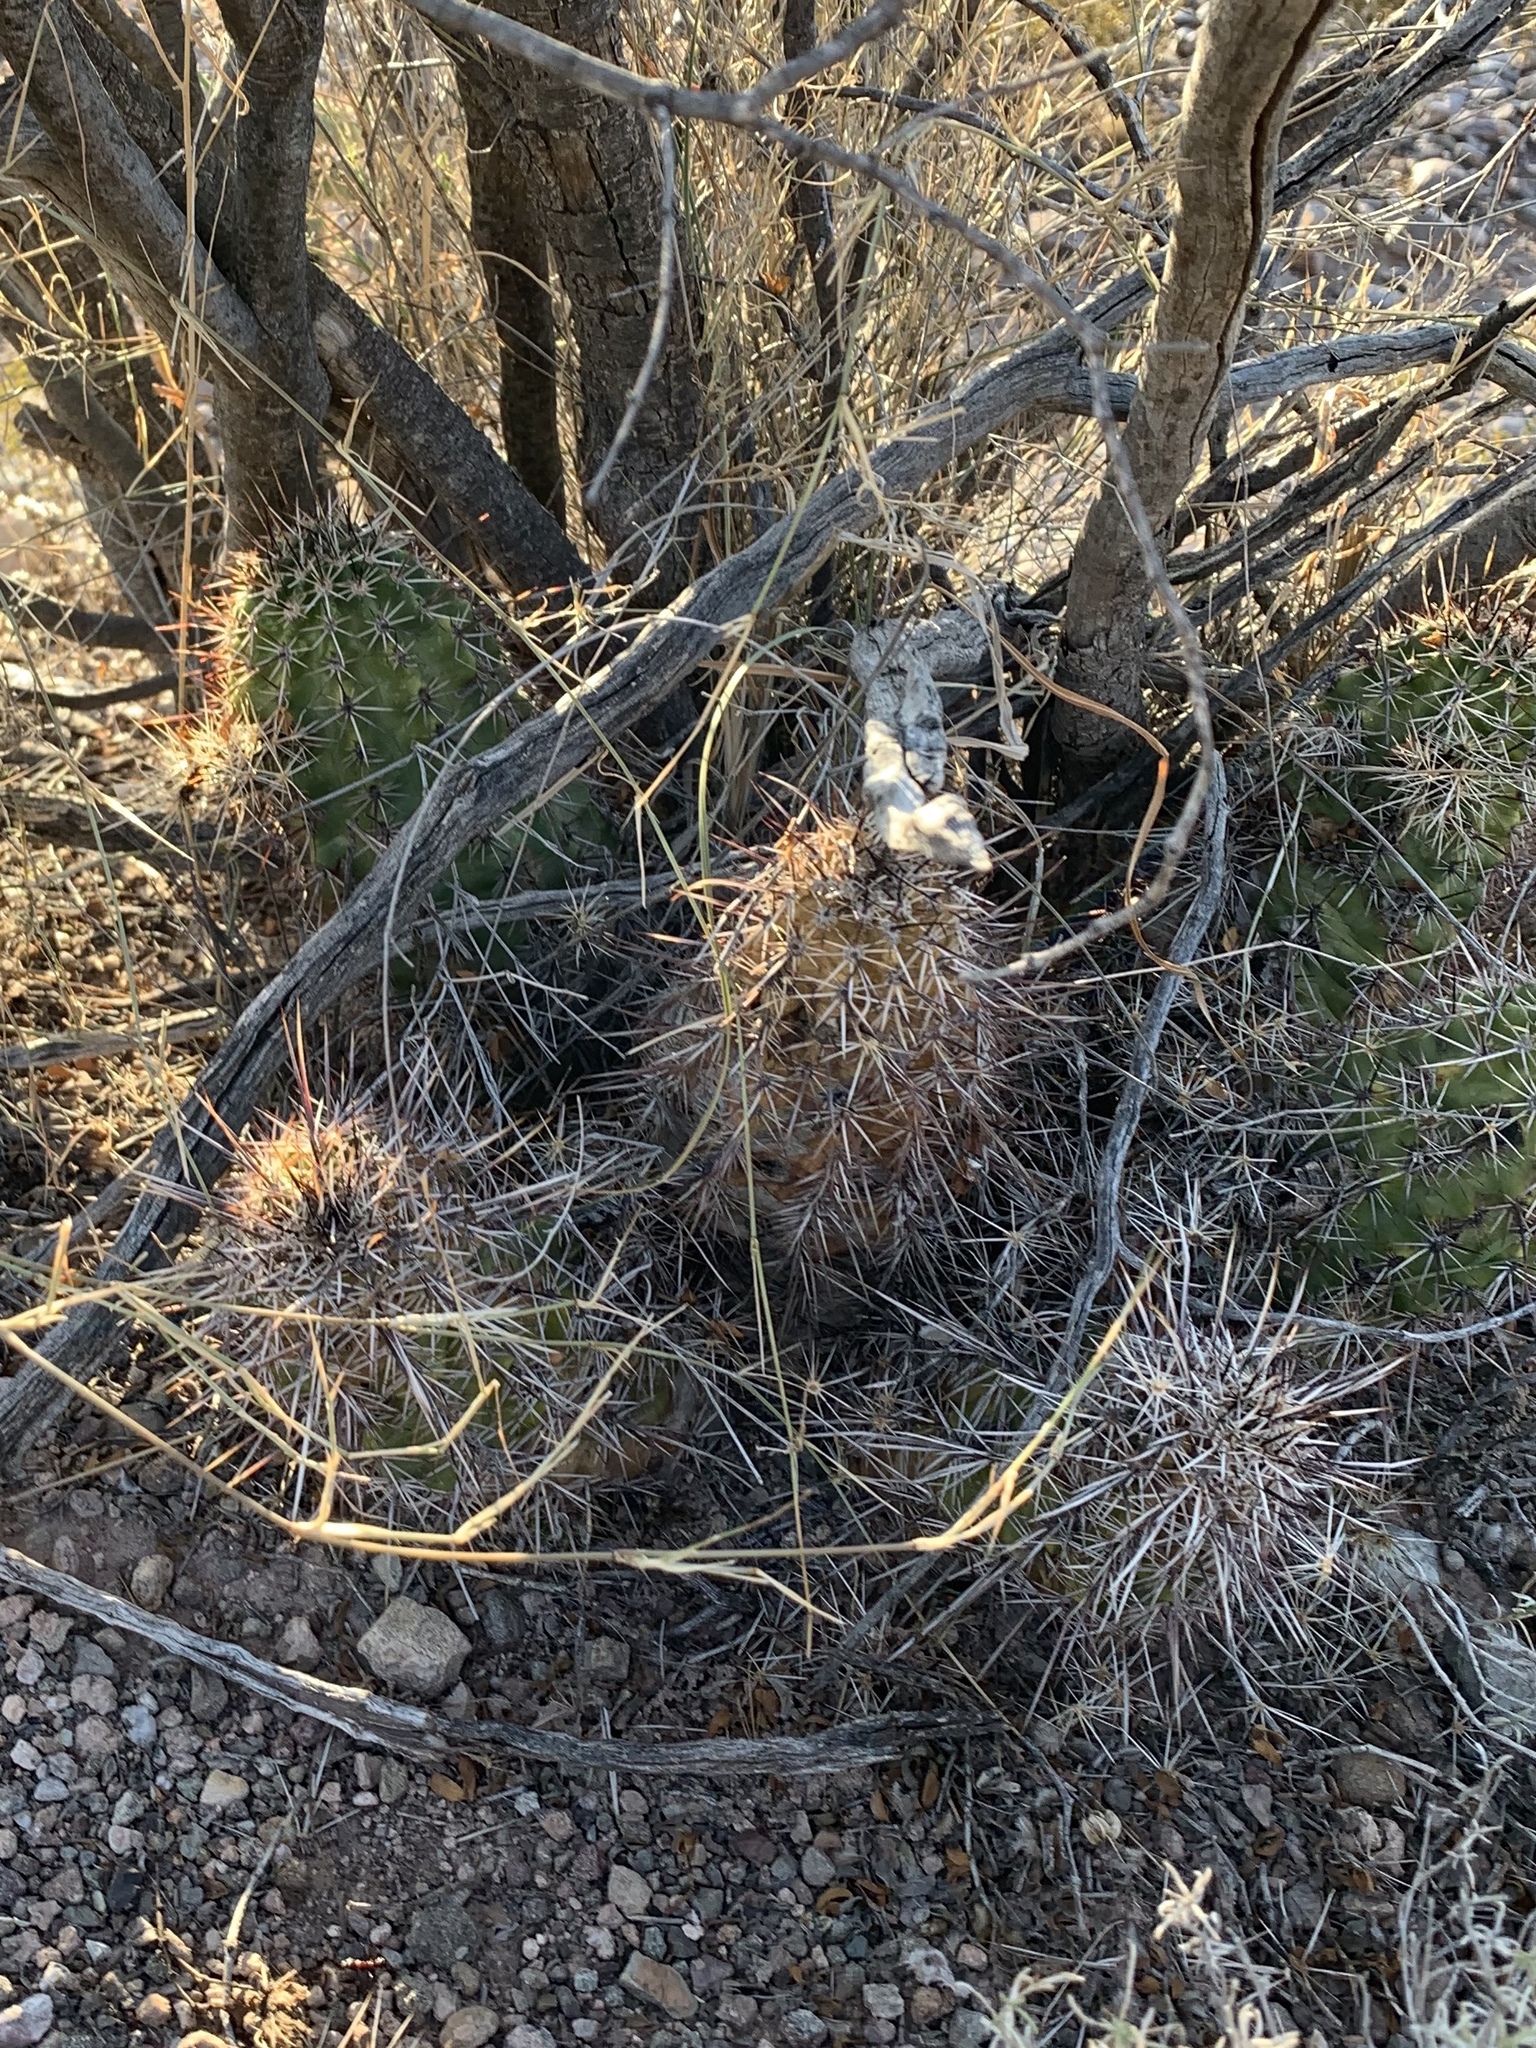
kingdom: Plantae
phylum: Tracheophyta
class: Magnoliopsida
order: Caryophyllales
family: Cactaceae
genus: Echinocereus
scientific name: Echinocereus fasciculatus
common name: Bundle hedgehog
